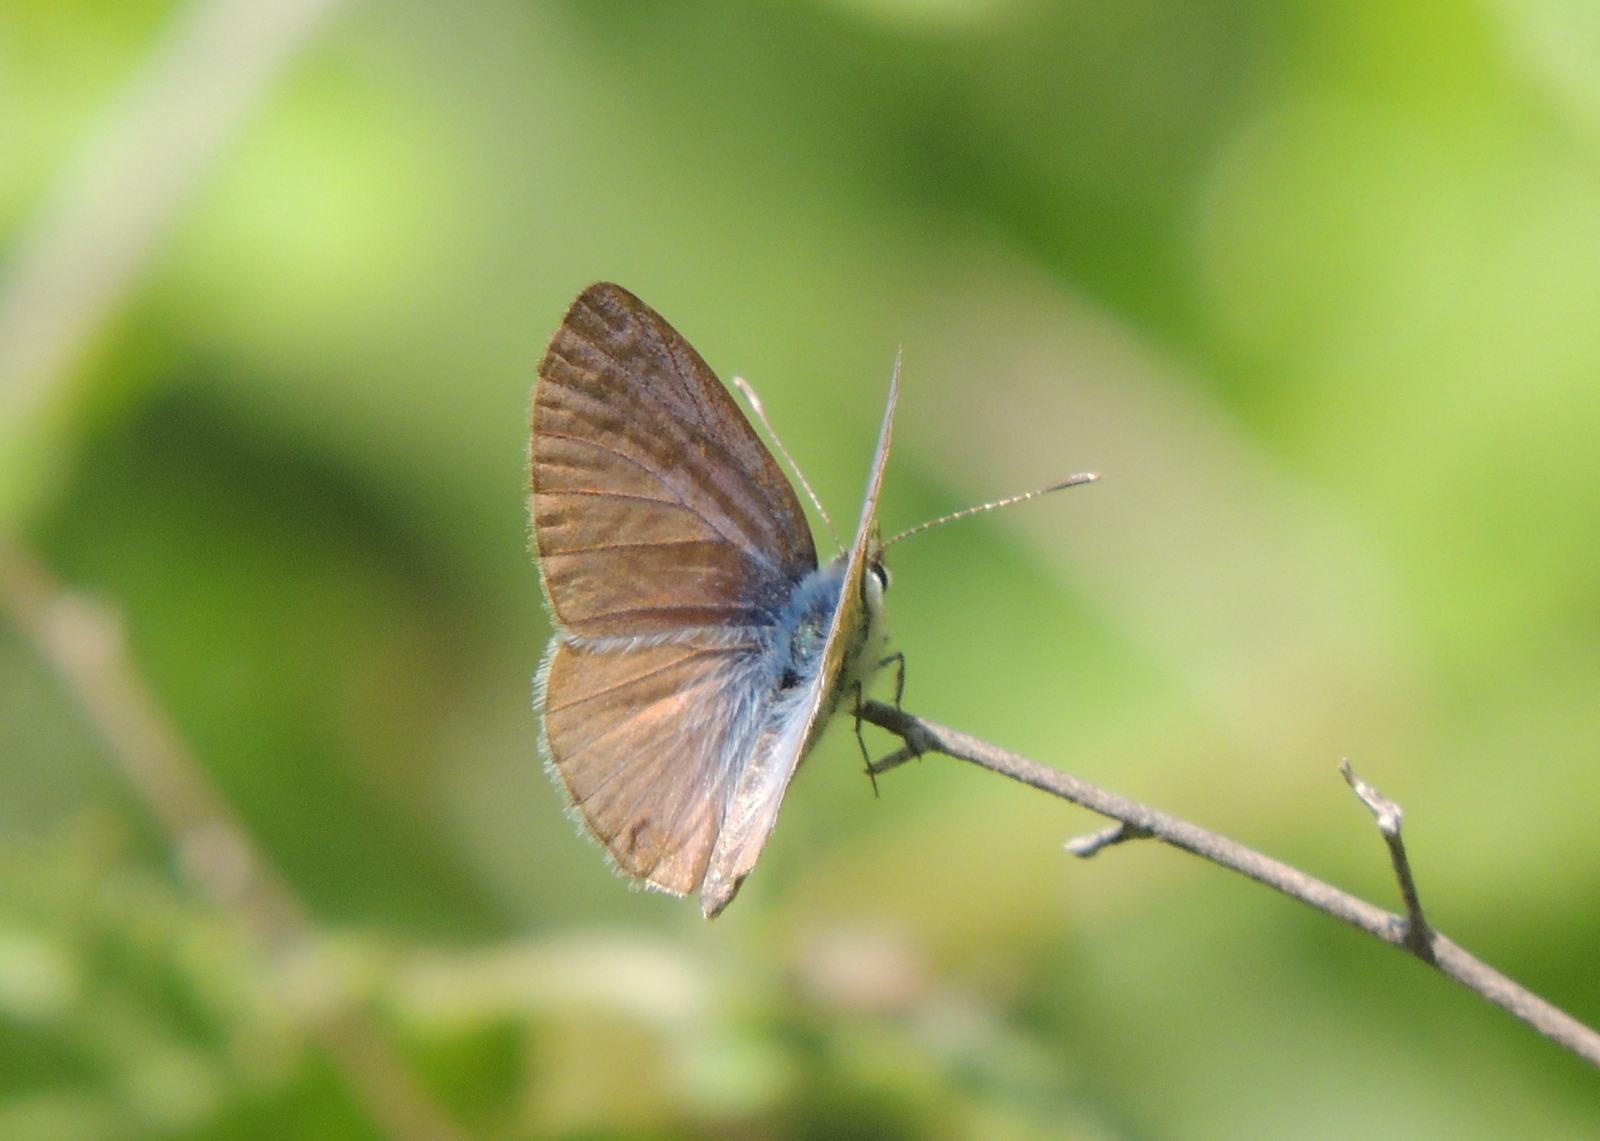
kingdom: Animalia
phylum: Arthropoda
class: Insecta
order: Lepidoptera
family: Lycaenidae
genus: Leptotes
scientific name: Leptotes marina
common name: Marine blue
